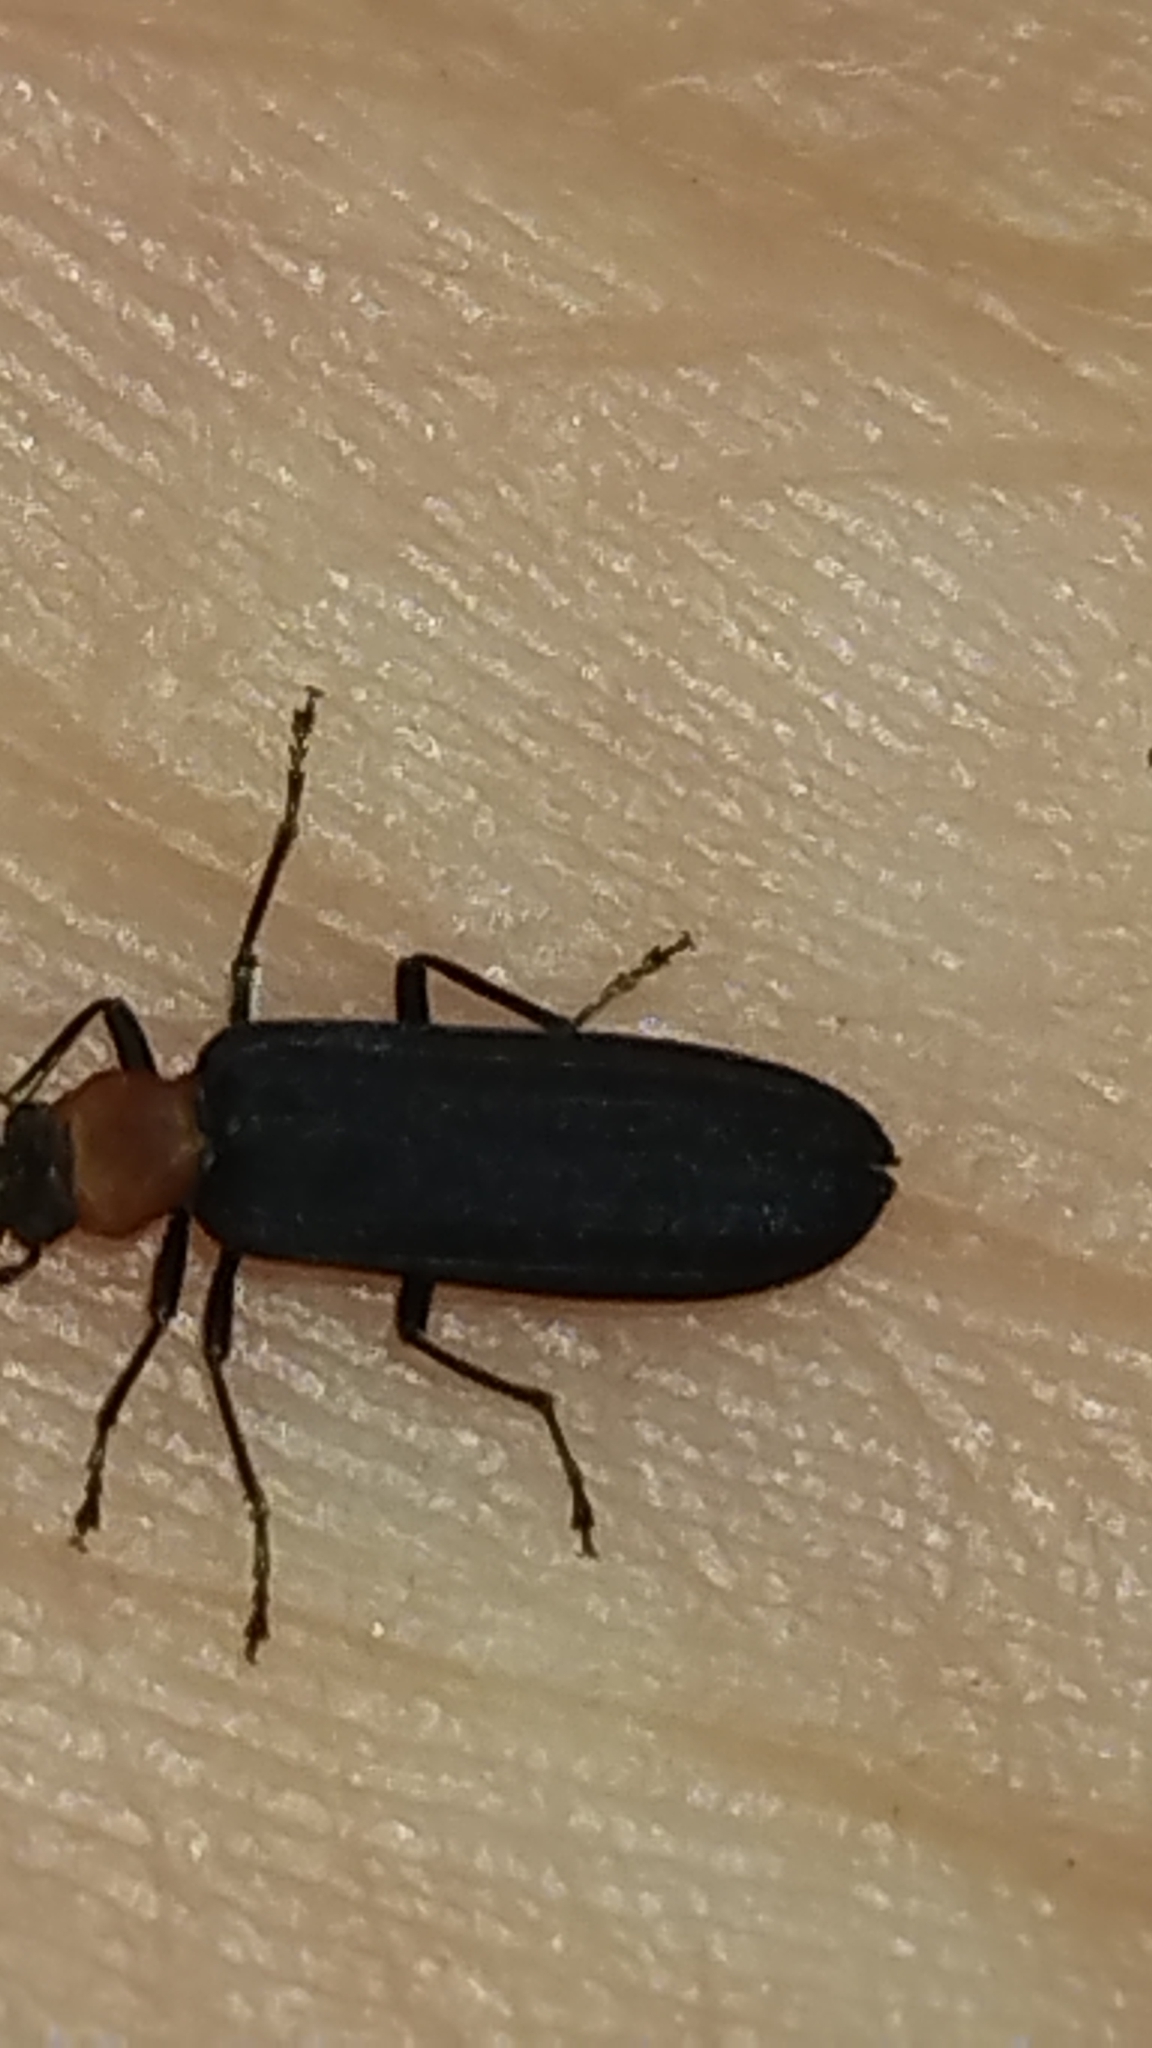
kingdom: Animalia
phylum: Arthropoda
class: Insecta
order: Coleoptera
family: Oedemeridae
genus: Ischnomera
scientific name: Ischnomera
